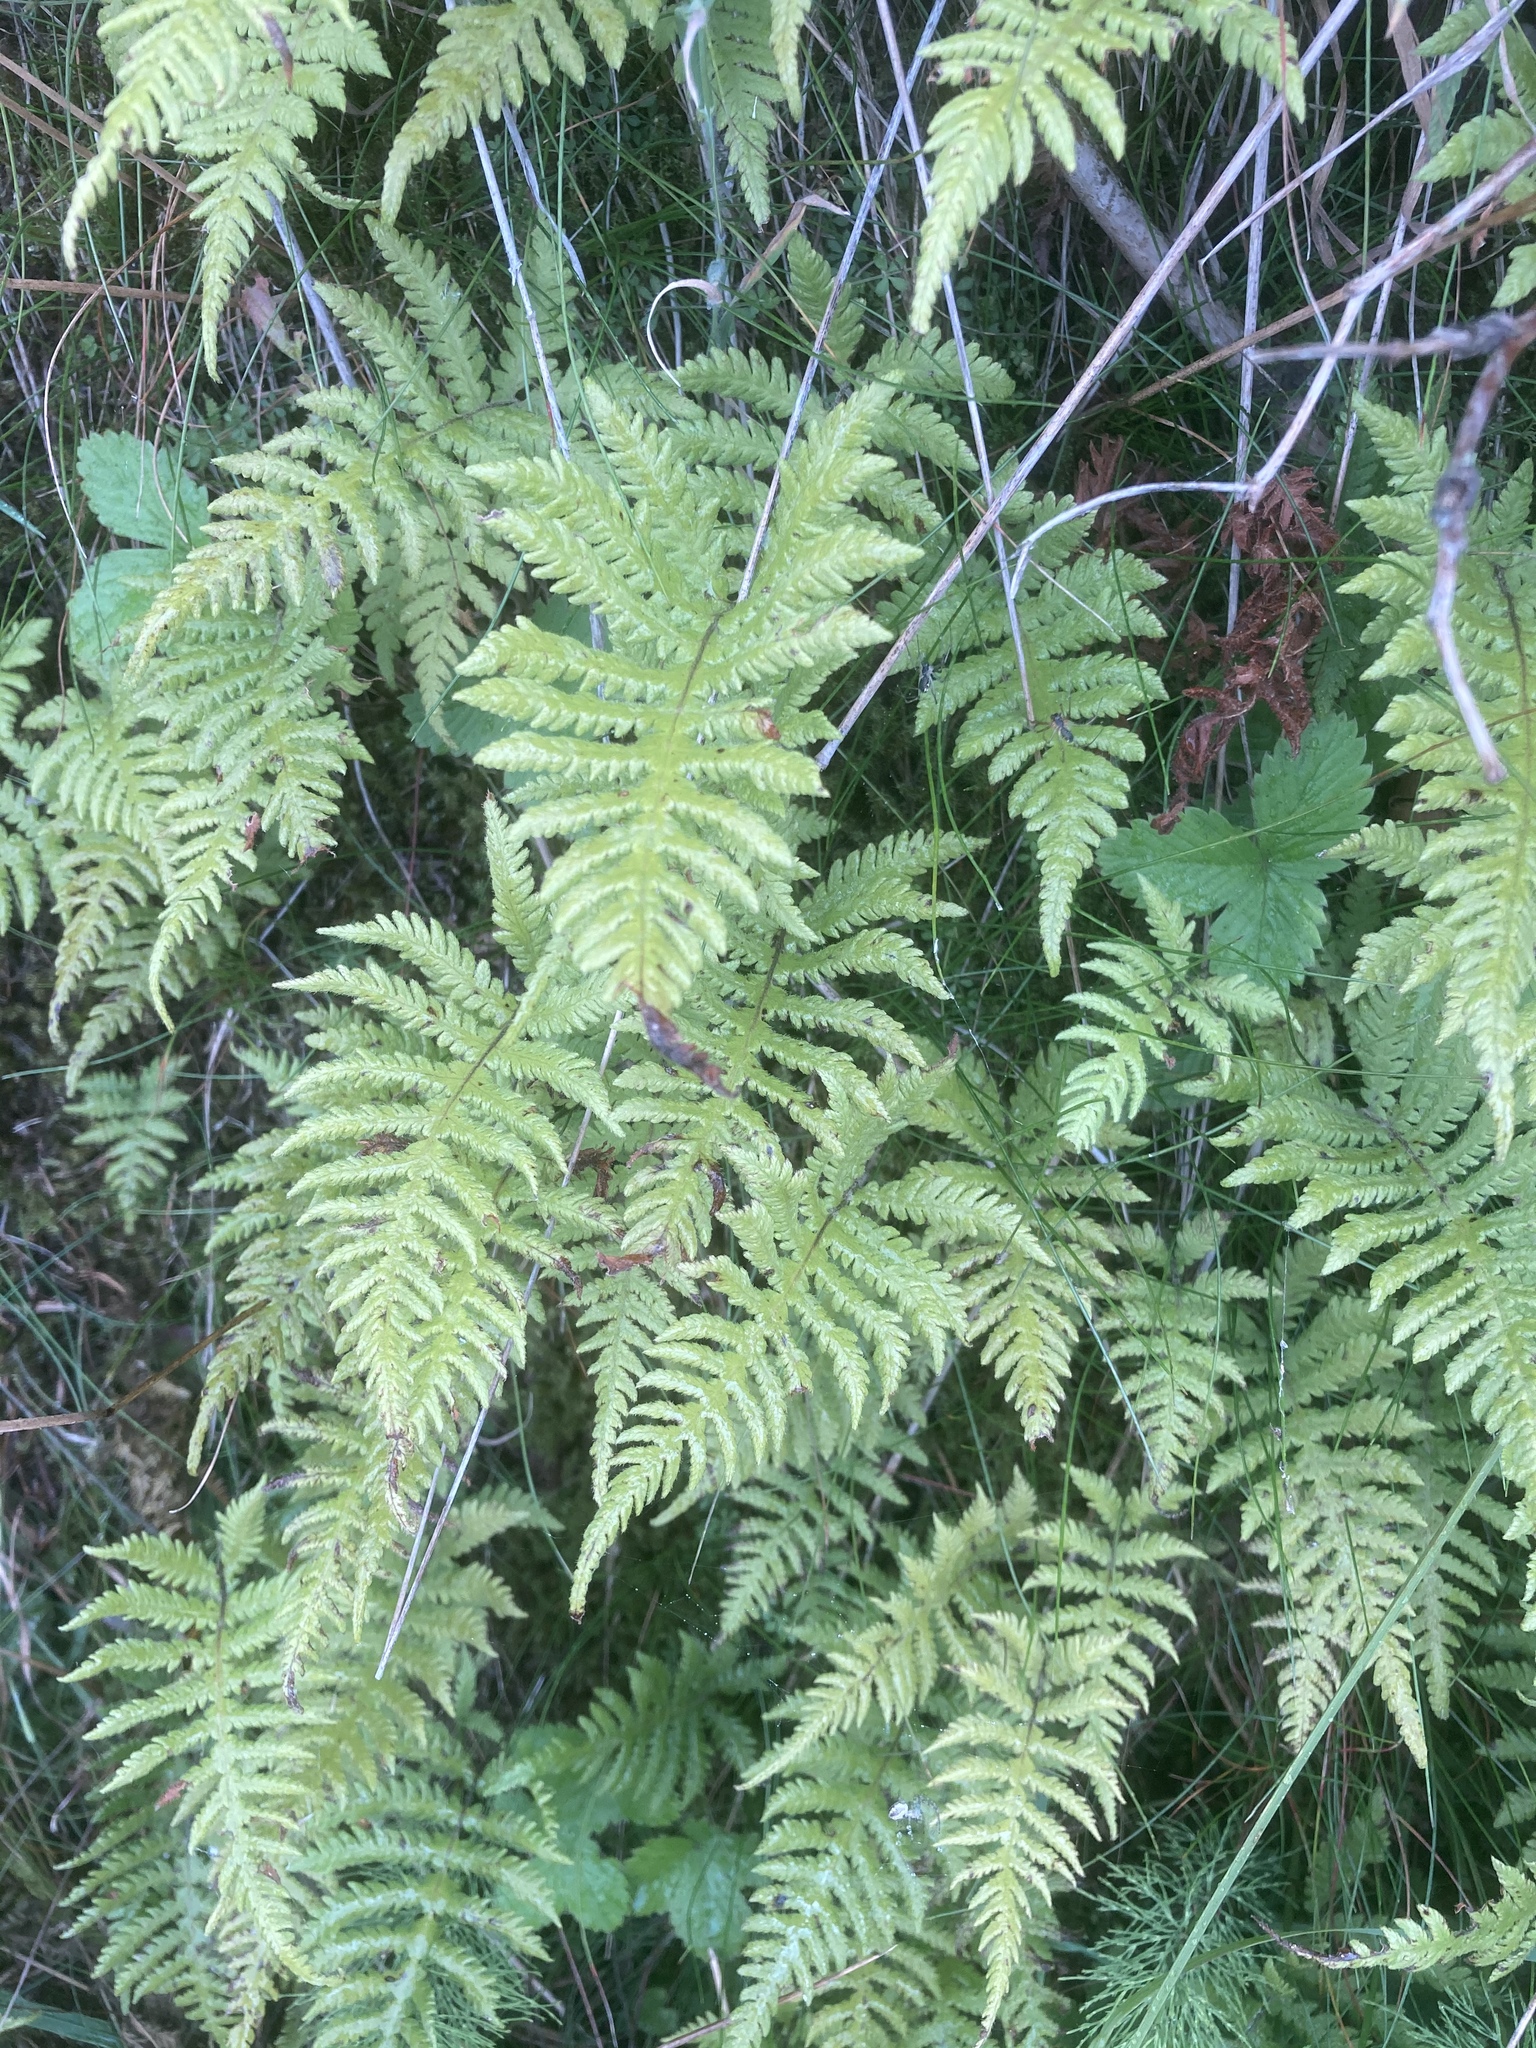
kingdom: Plantae
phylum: Tracheophyta
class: Polypodiopsida
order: Polypodiales
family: Thelypteridaceae
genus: Phegopteris
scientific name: Phegopteris connectilis
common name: Beech fern
